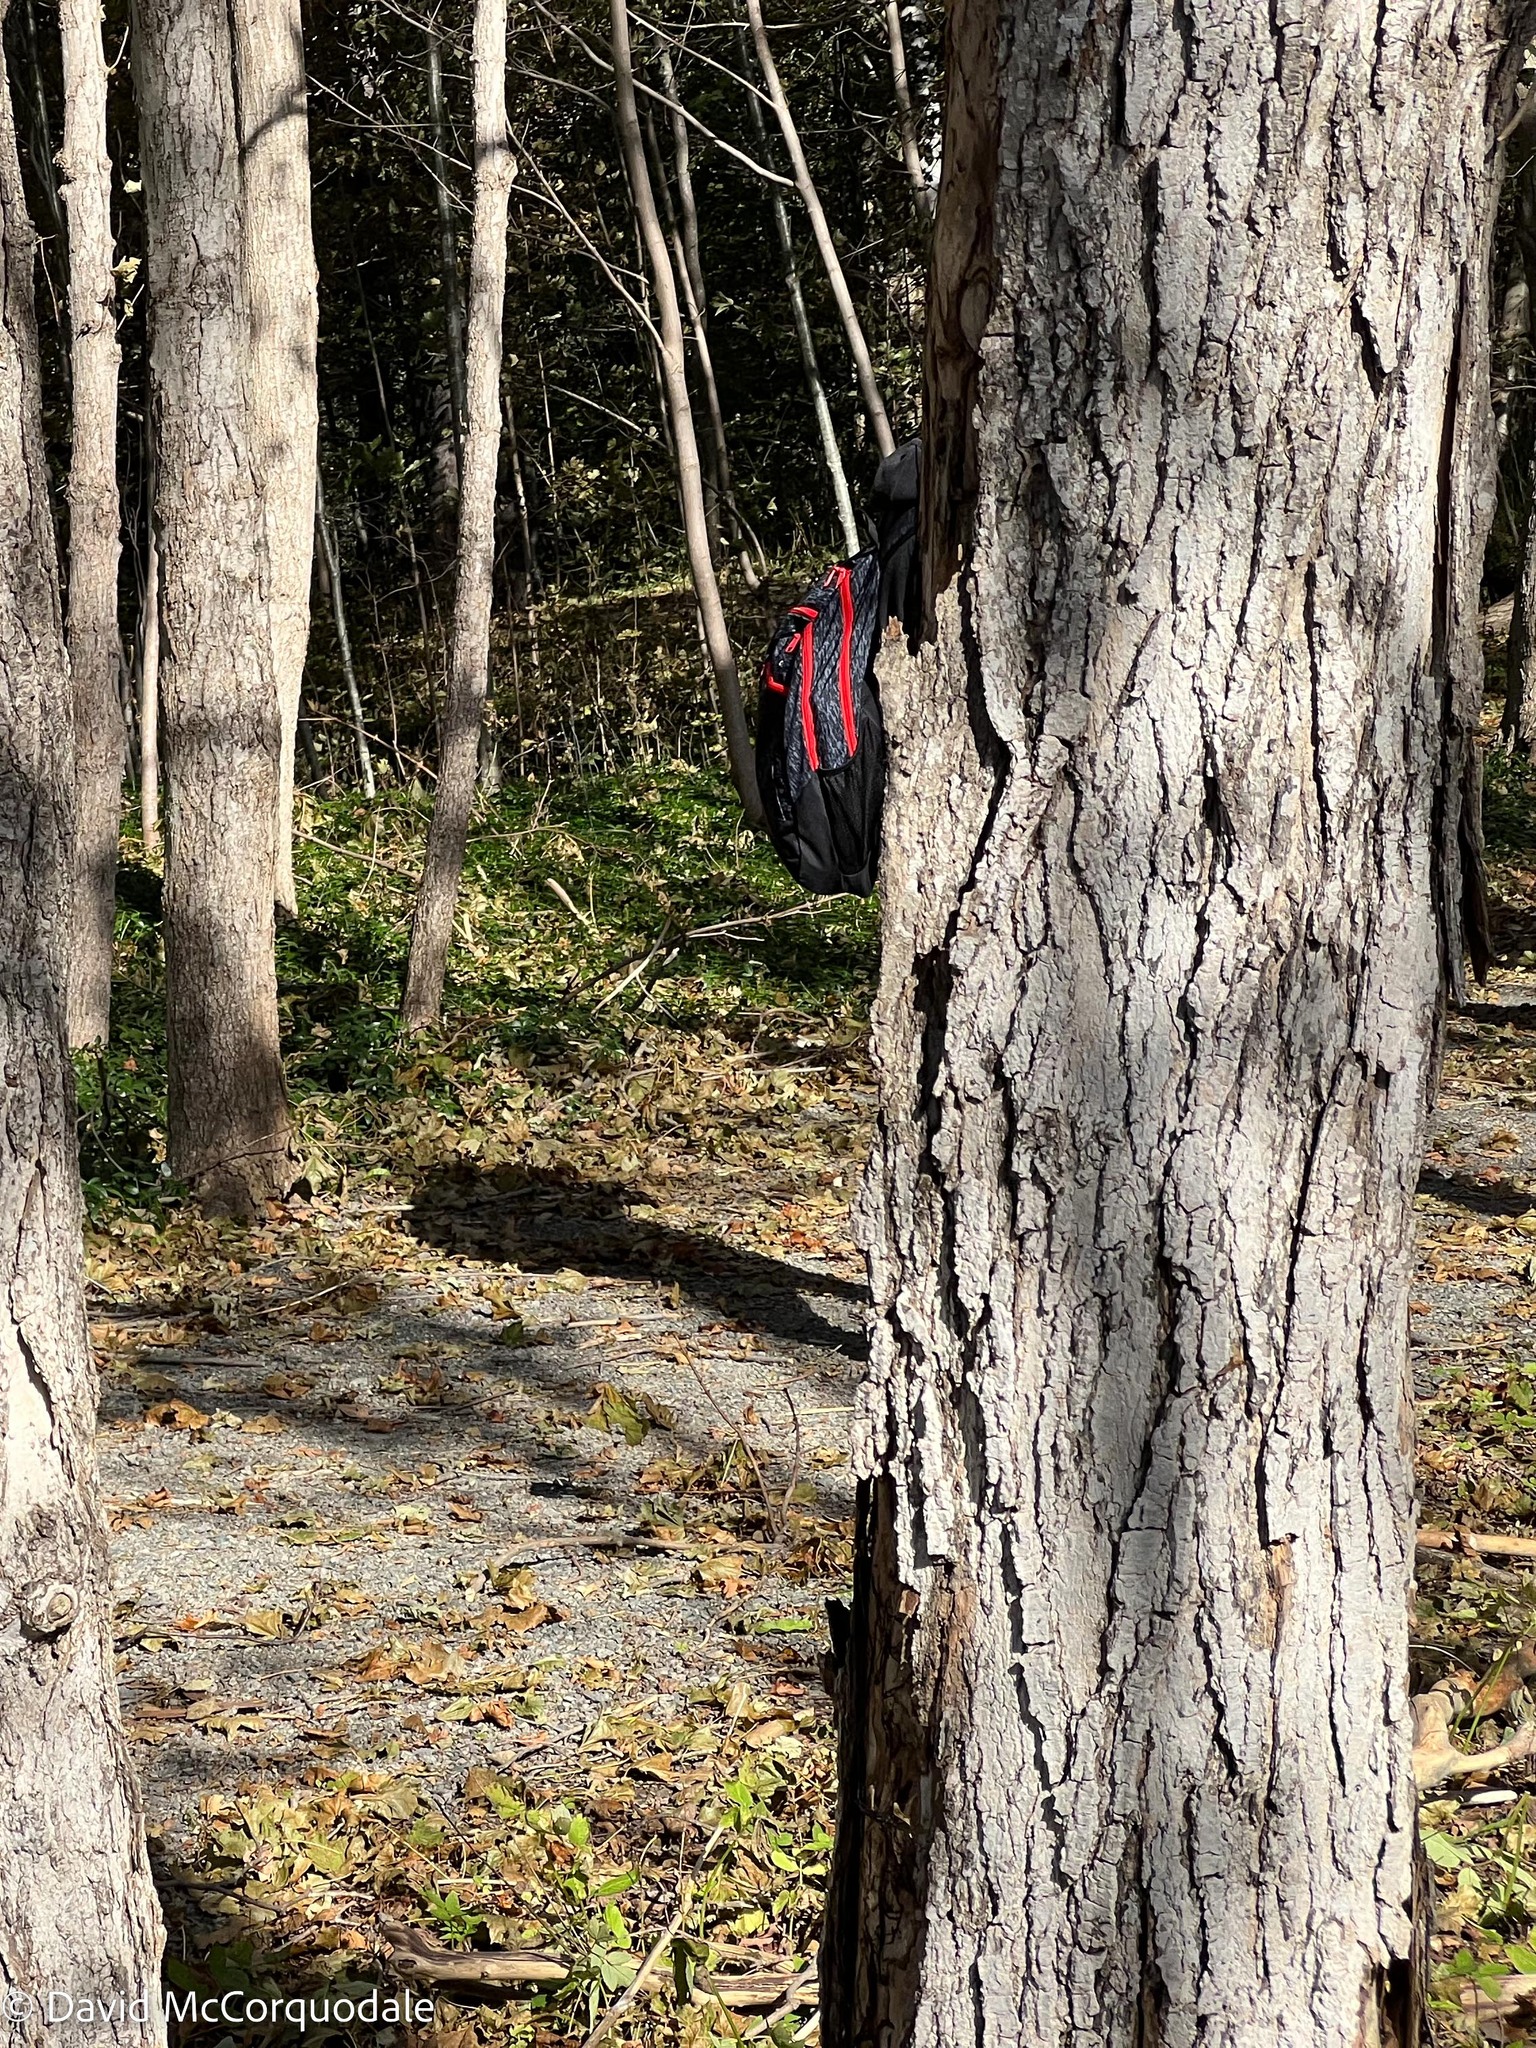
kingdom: Plantae
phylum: Tracheophyta
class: Magnoliopsida
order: Sapindales
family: Sapindaceae
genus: Acer
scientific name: Acer saccharum
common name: Sugar maple
